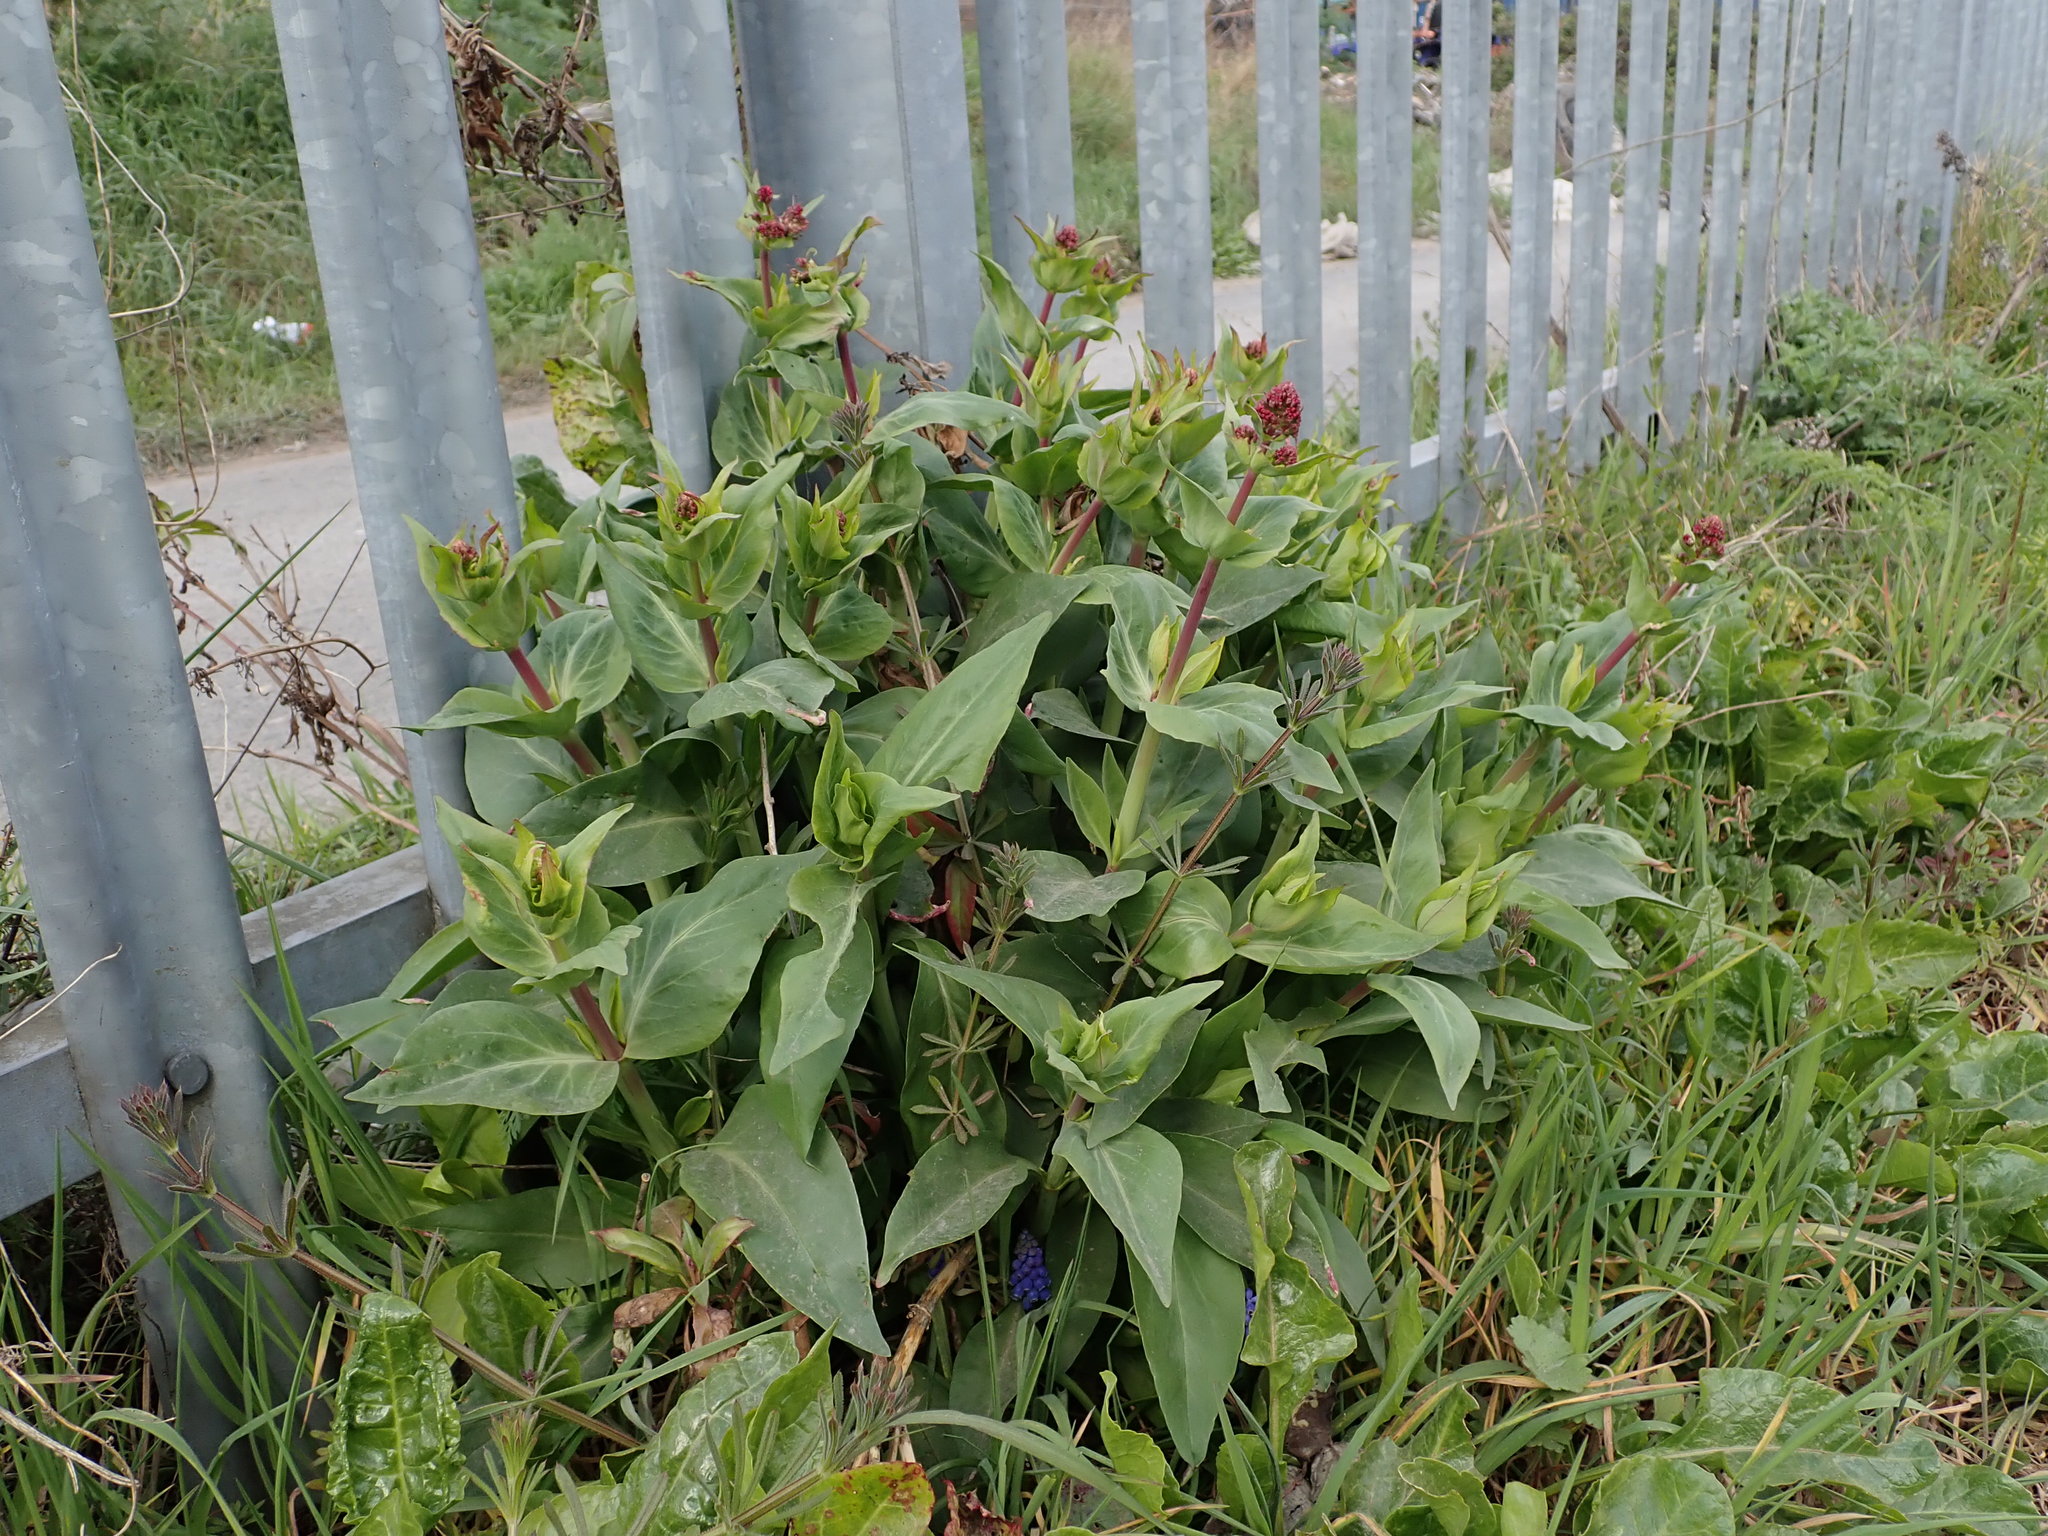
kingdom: Plantae
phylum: Tracheophyta
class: Magnoliopsida
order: Dipsacales
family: Caprifoliaceae
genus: Centranthus
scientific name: Centranthus ruber
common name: Red valerian
